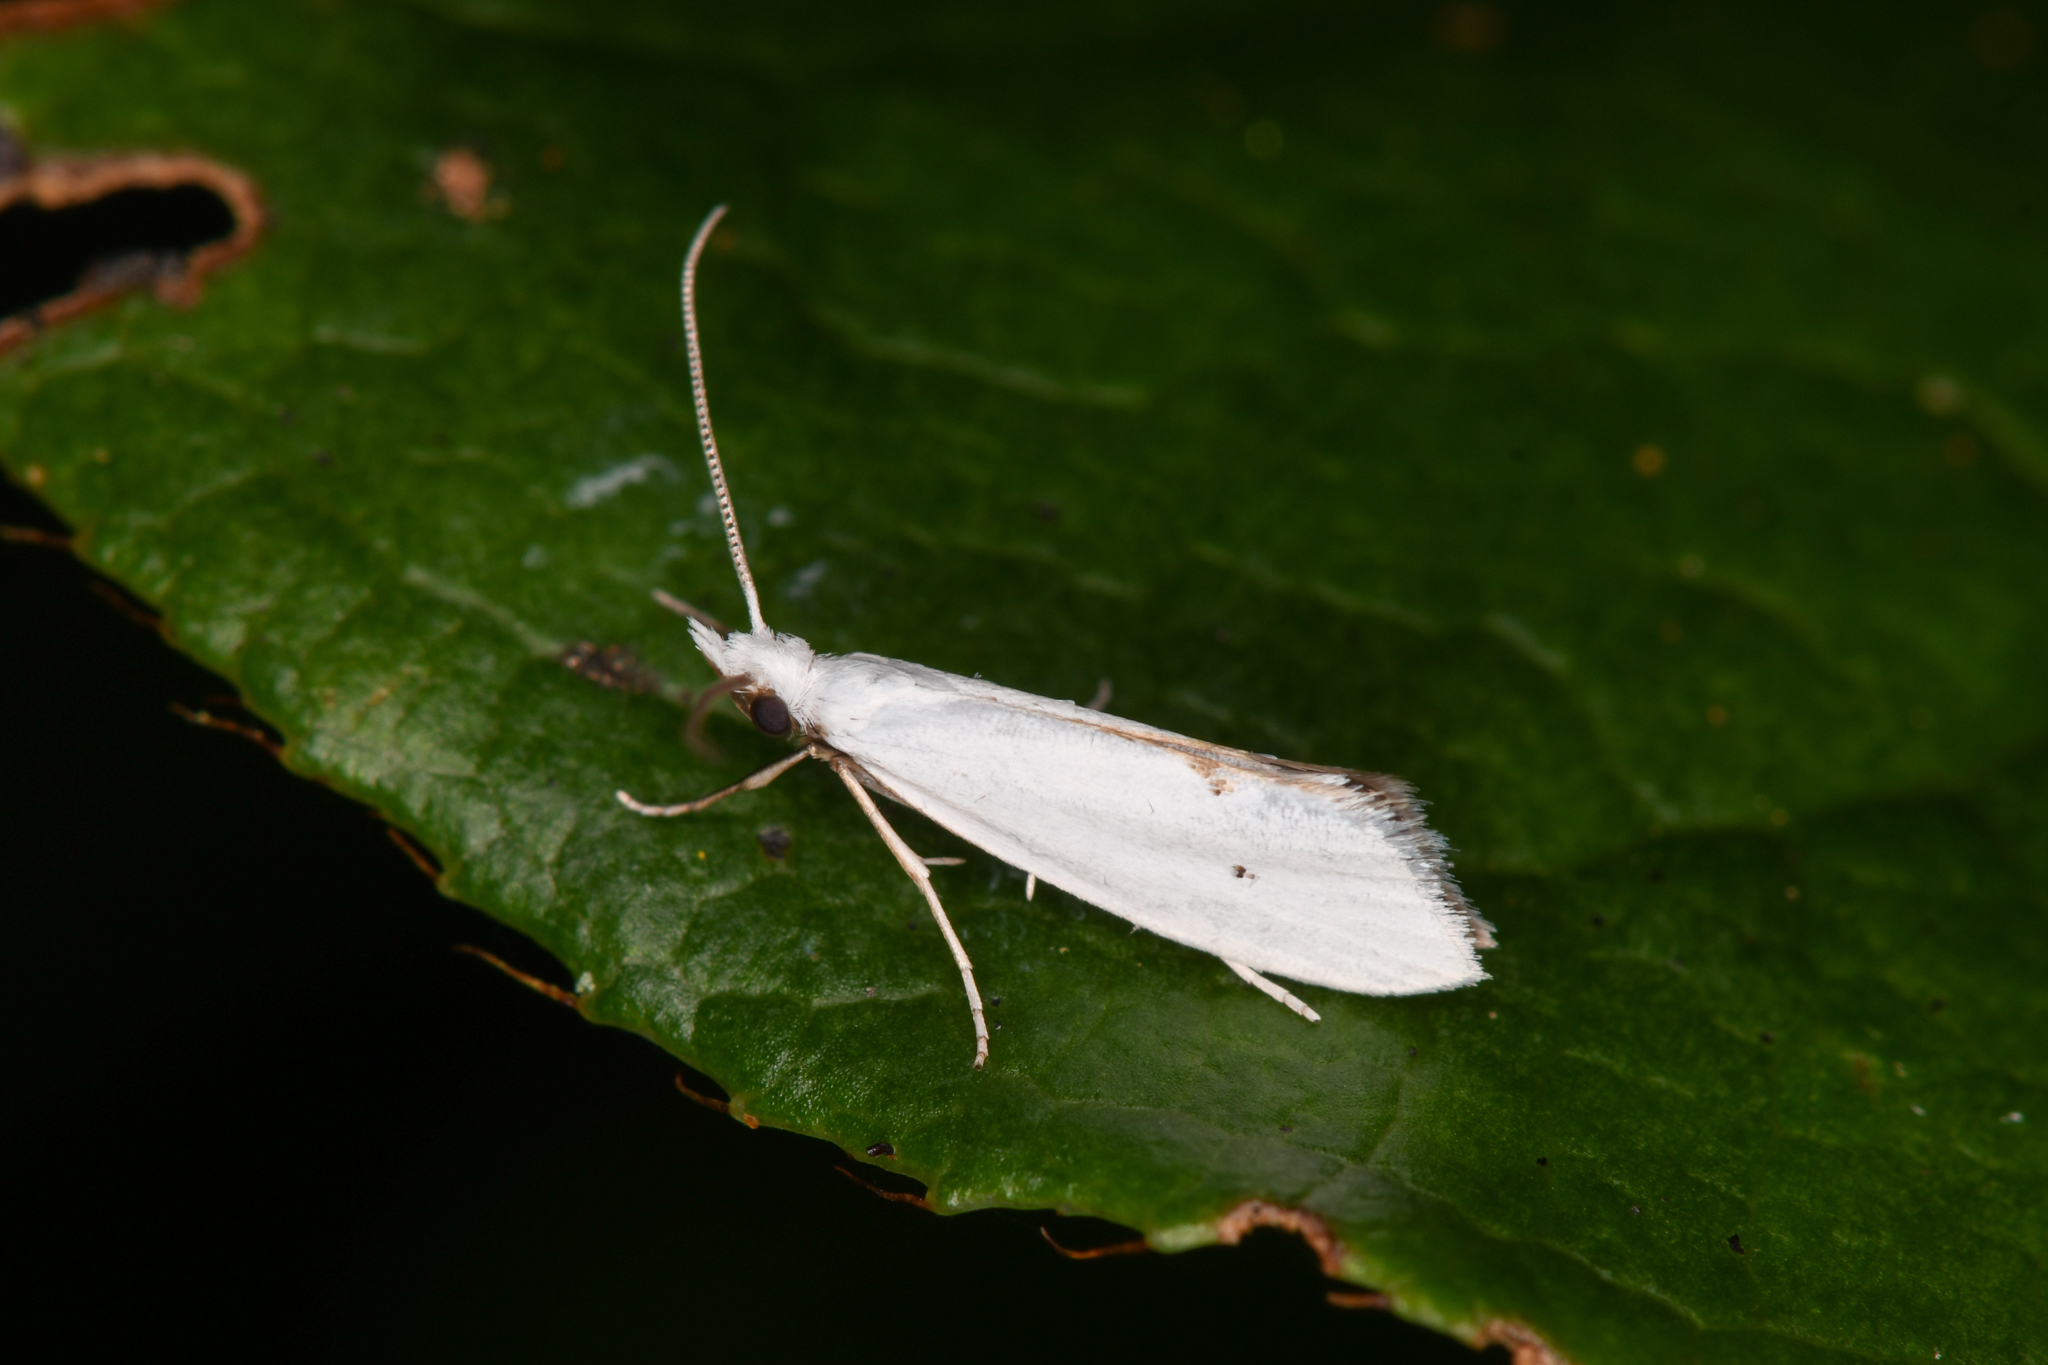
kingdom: Animalia
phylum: Arthropoda
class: Insecta
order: Lepidoptera
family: Yponomeutidae
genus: Eucalantica
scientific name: Eucalantica polita
